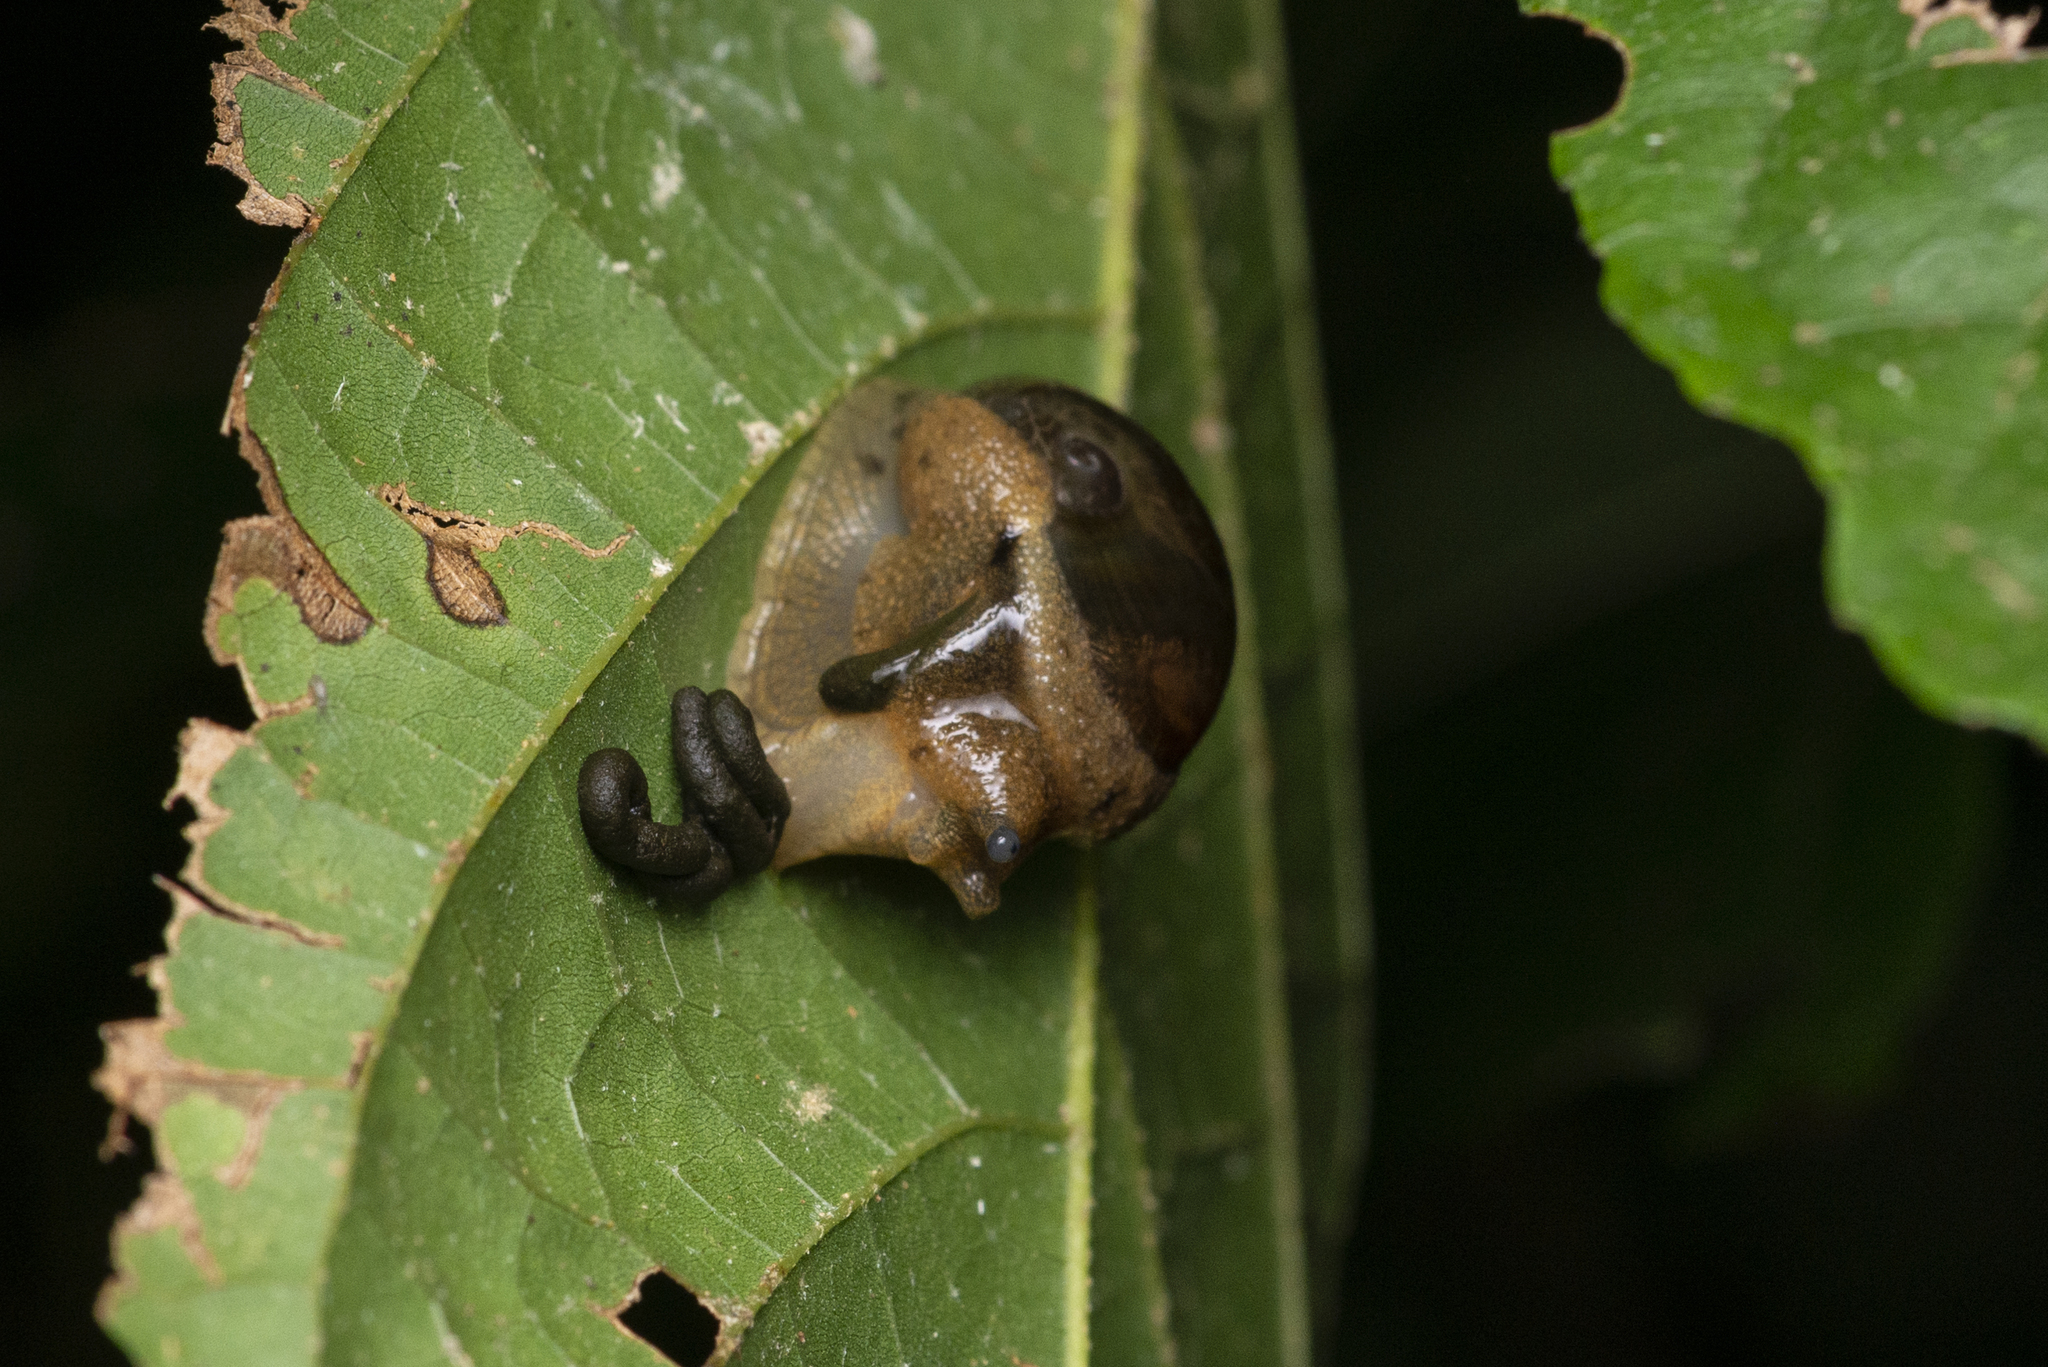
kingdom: Animalia
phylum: Mollusca
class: Gastropoda
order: Stylommatophora
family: Ariophantidae
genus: Megaustenia
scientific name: Megaustenia imperator
